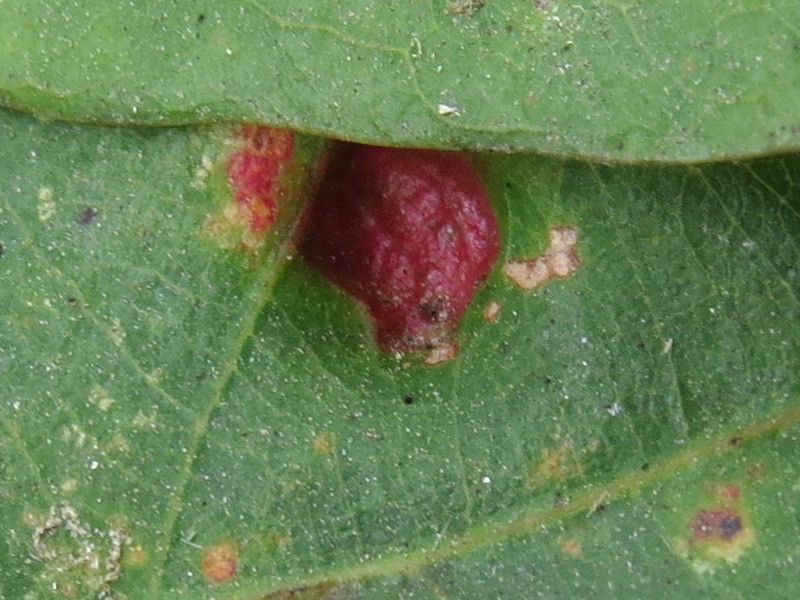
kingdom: Animalia
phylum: Arthropoda
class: Arachnida
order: Trombidiformes
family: Eriophyidae
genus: Aceria
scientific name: Aceria
